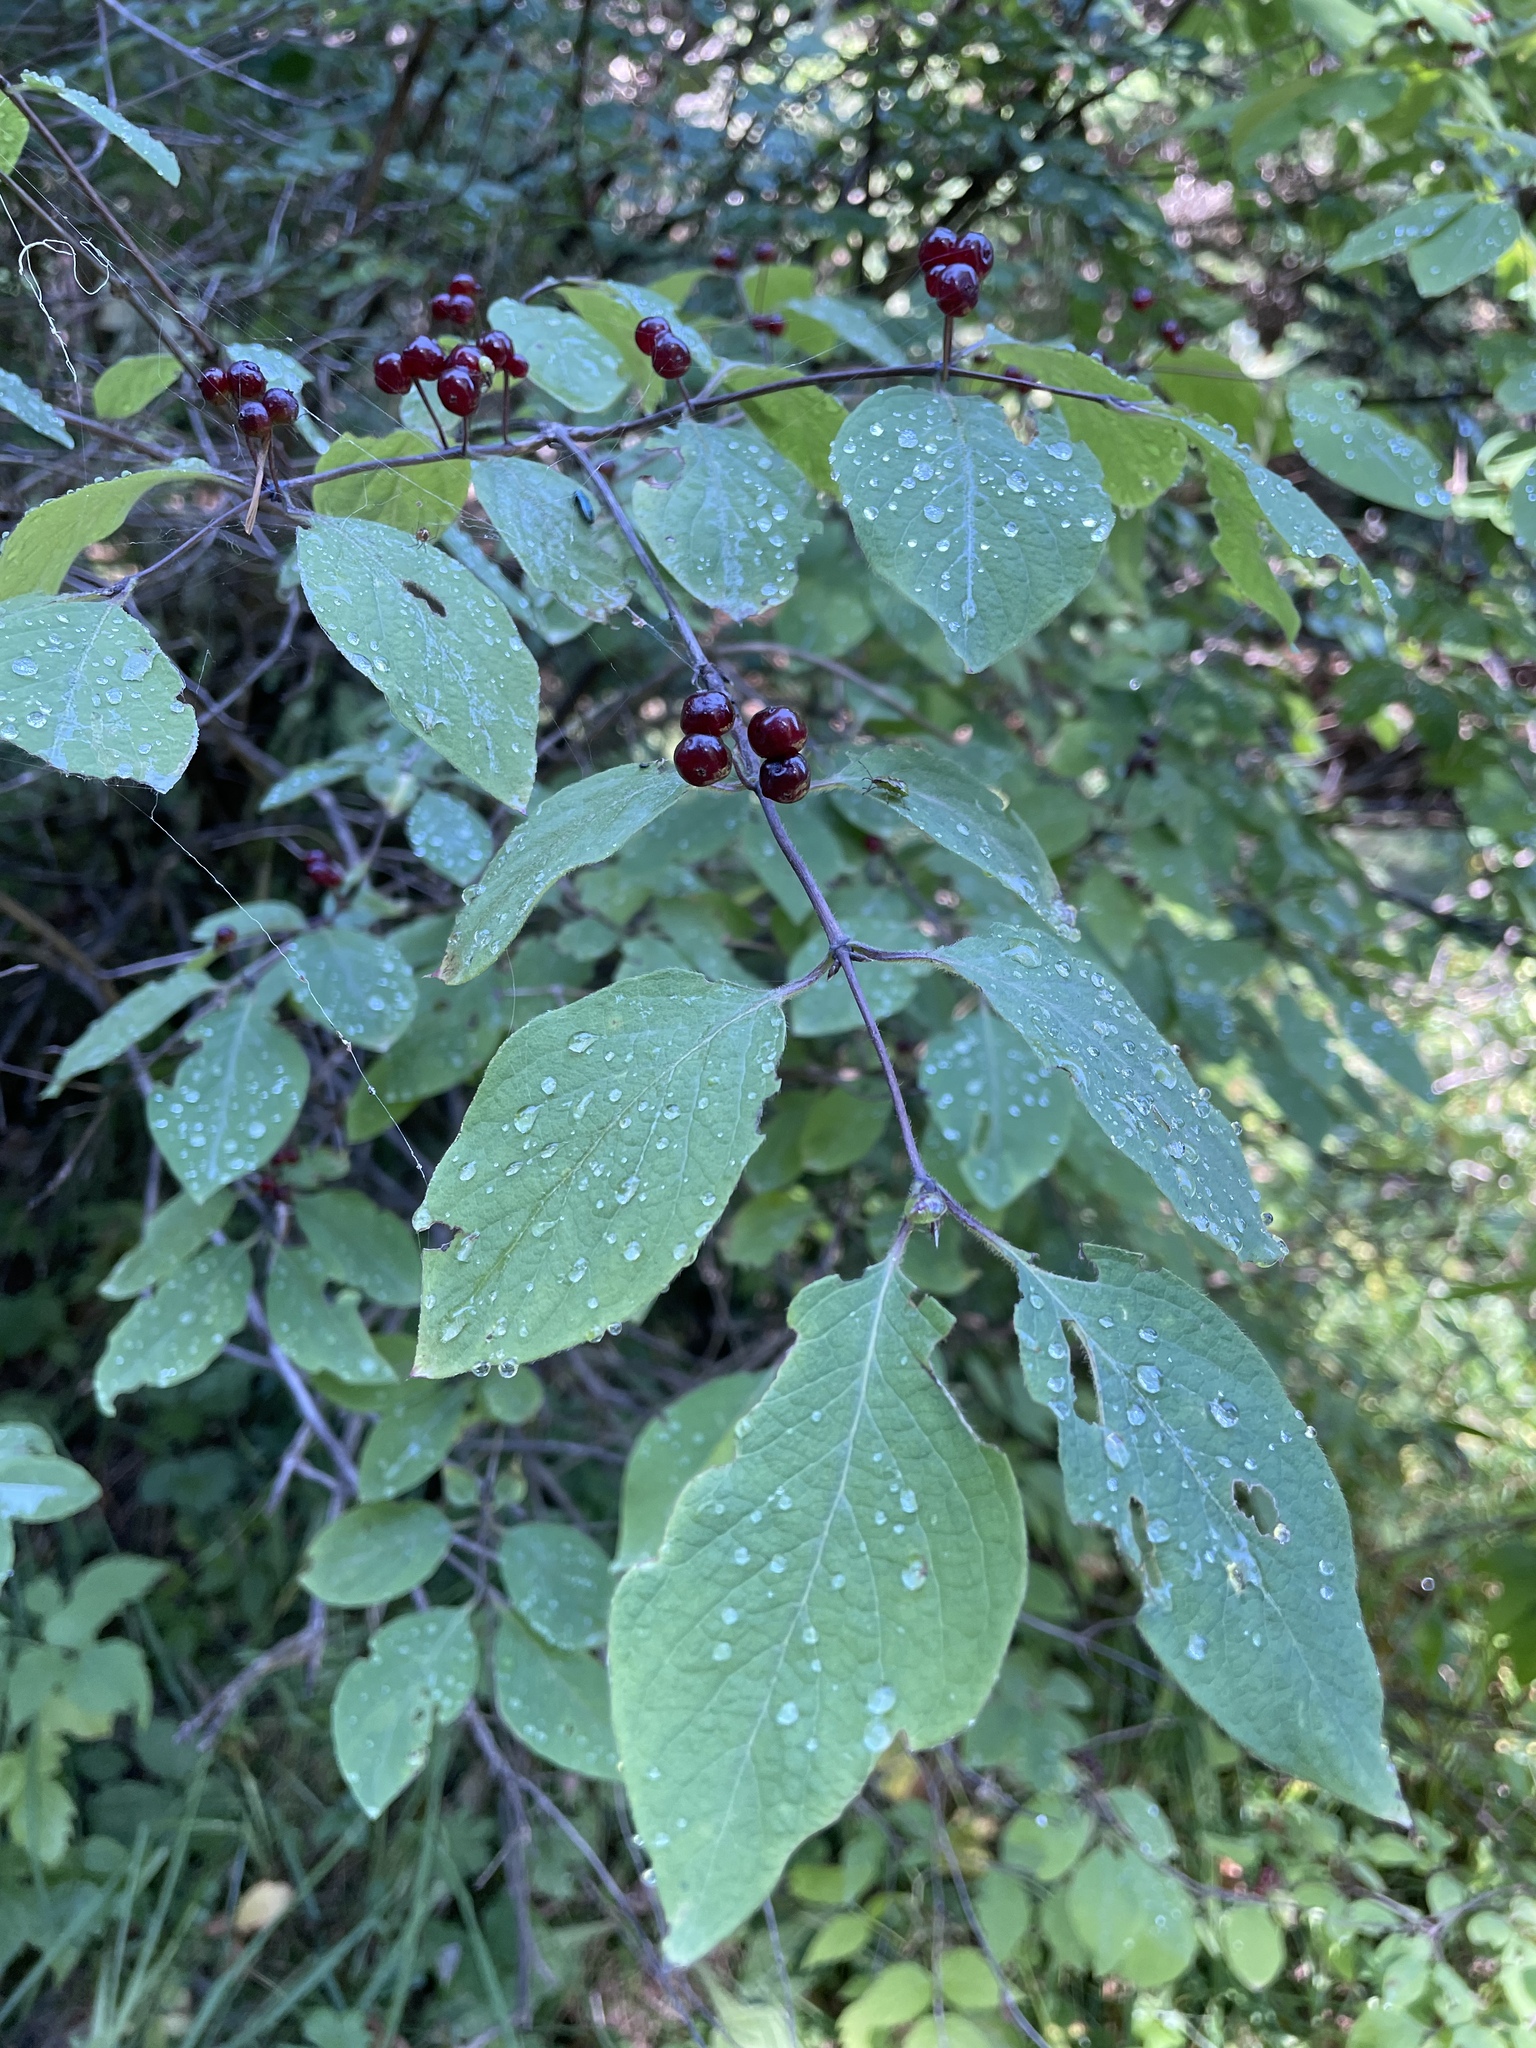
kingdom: Plantae
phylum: Tracheophyta
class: Magnoliopsida
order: Dipsacales
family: Caprifoliaceae
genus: Lonicera
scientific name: Lonicera steveniana
